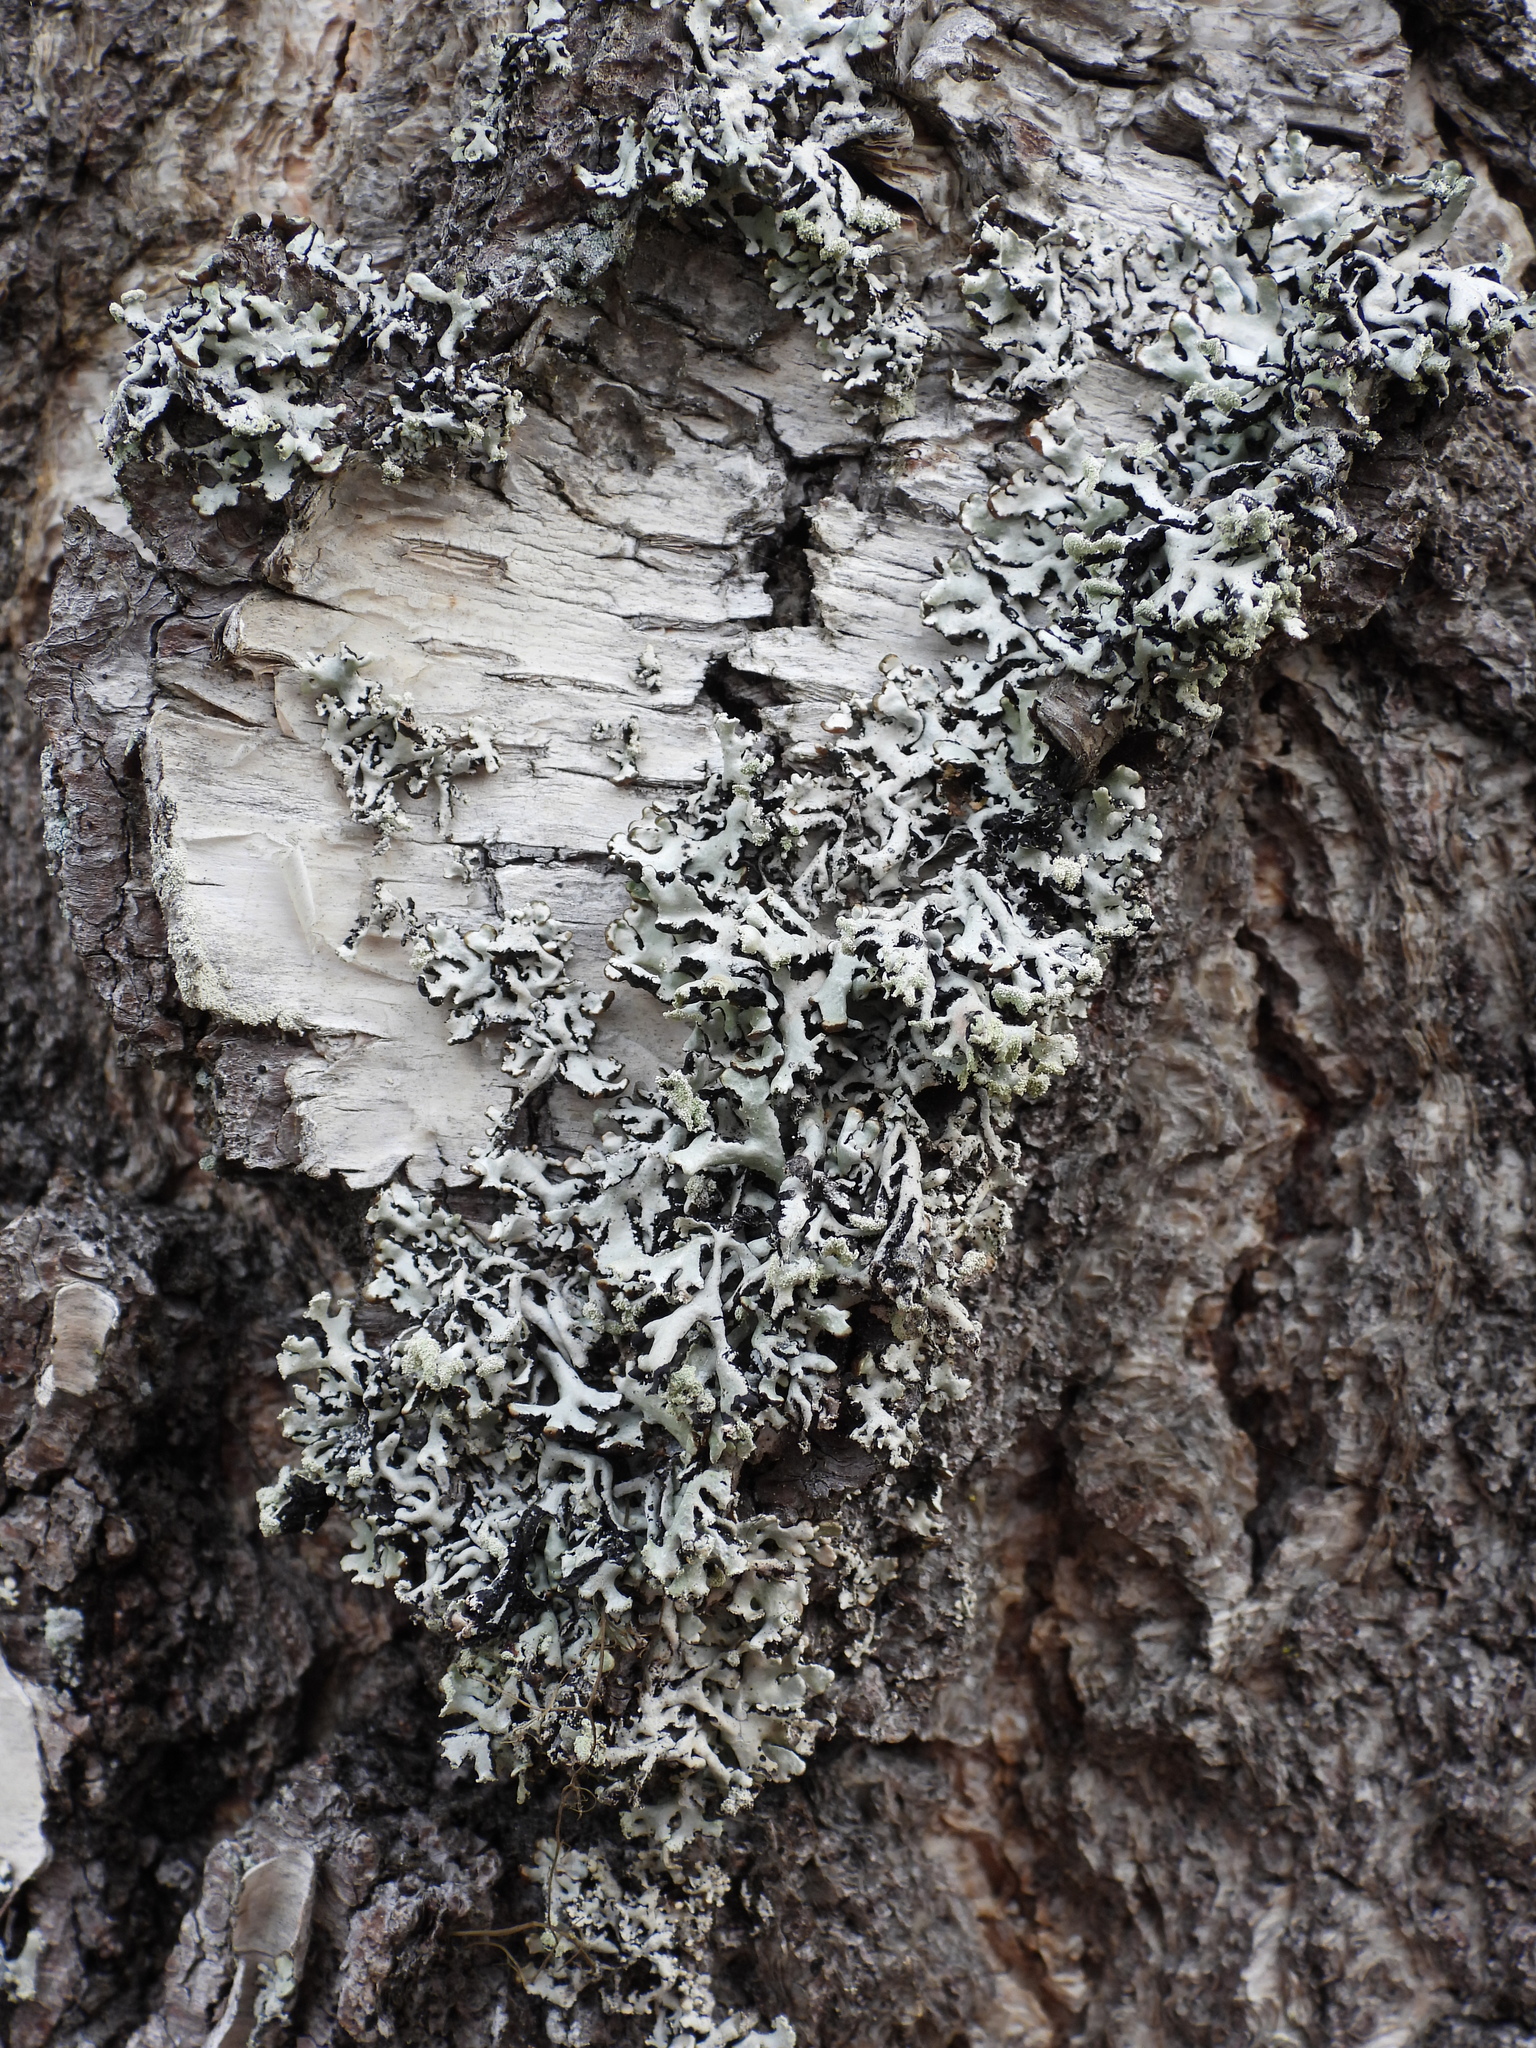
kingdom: Fungi
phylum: Ascomycota
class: Lecanoromycetes
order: Lecanorales
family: Parmeliaceae
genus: Hypogymnia
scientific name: Hypogymnia physodes
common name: Dark crottle
